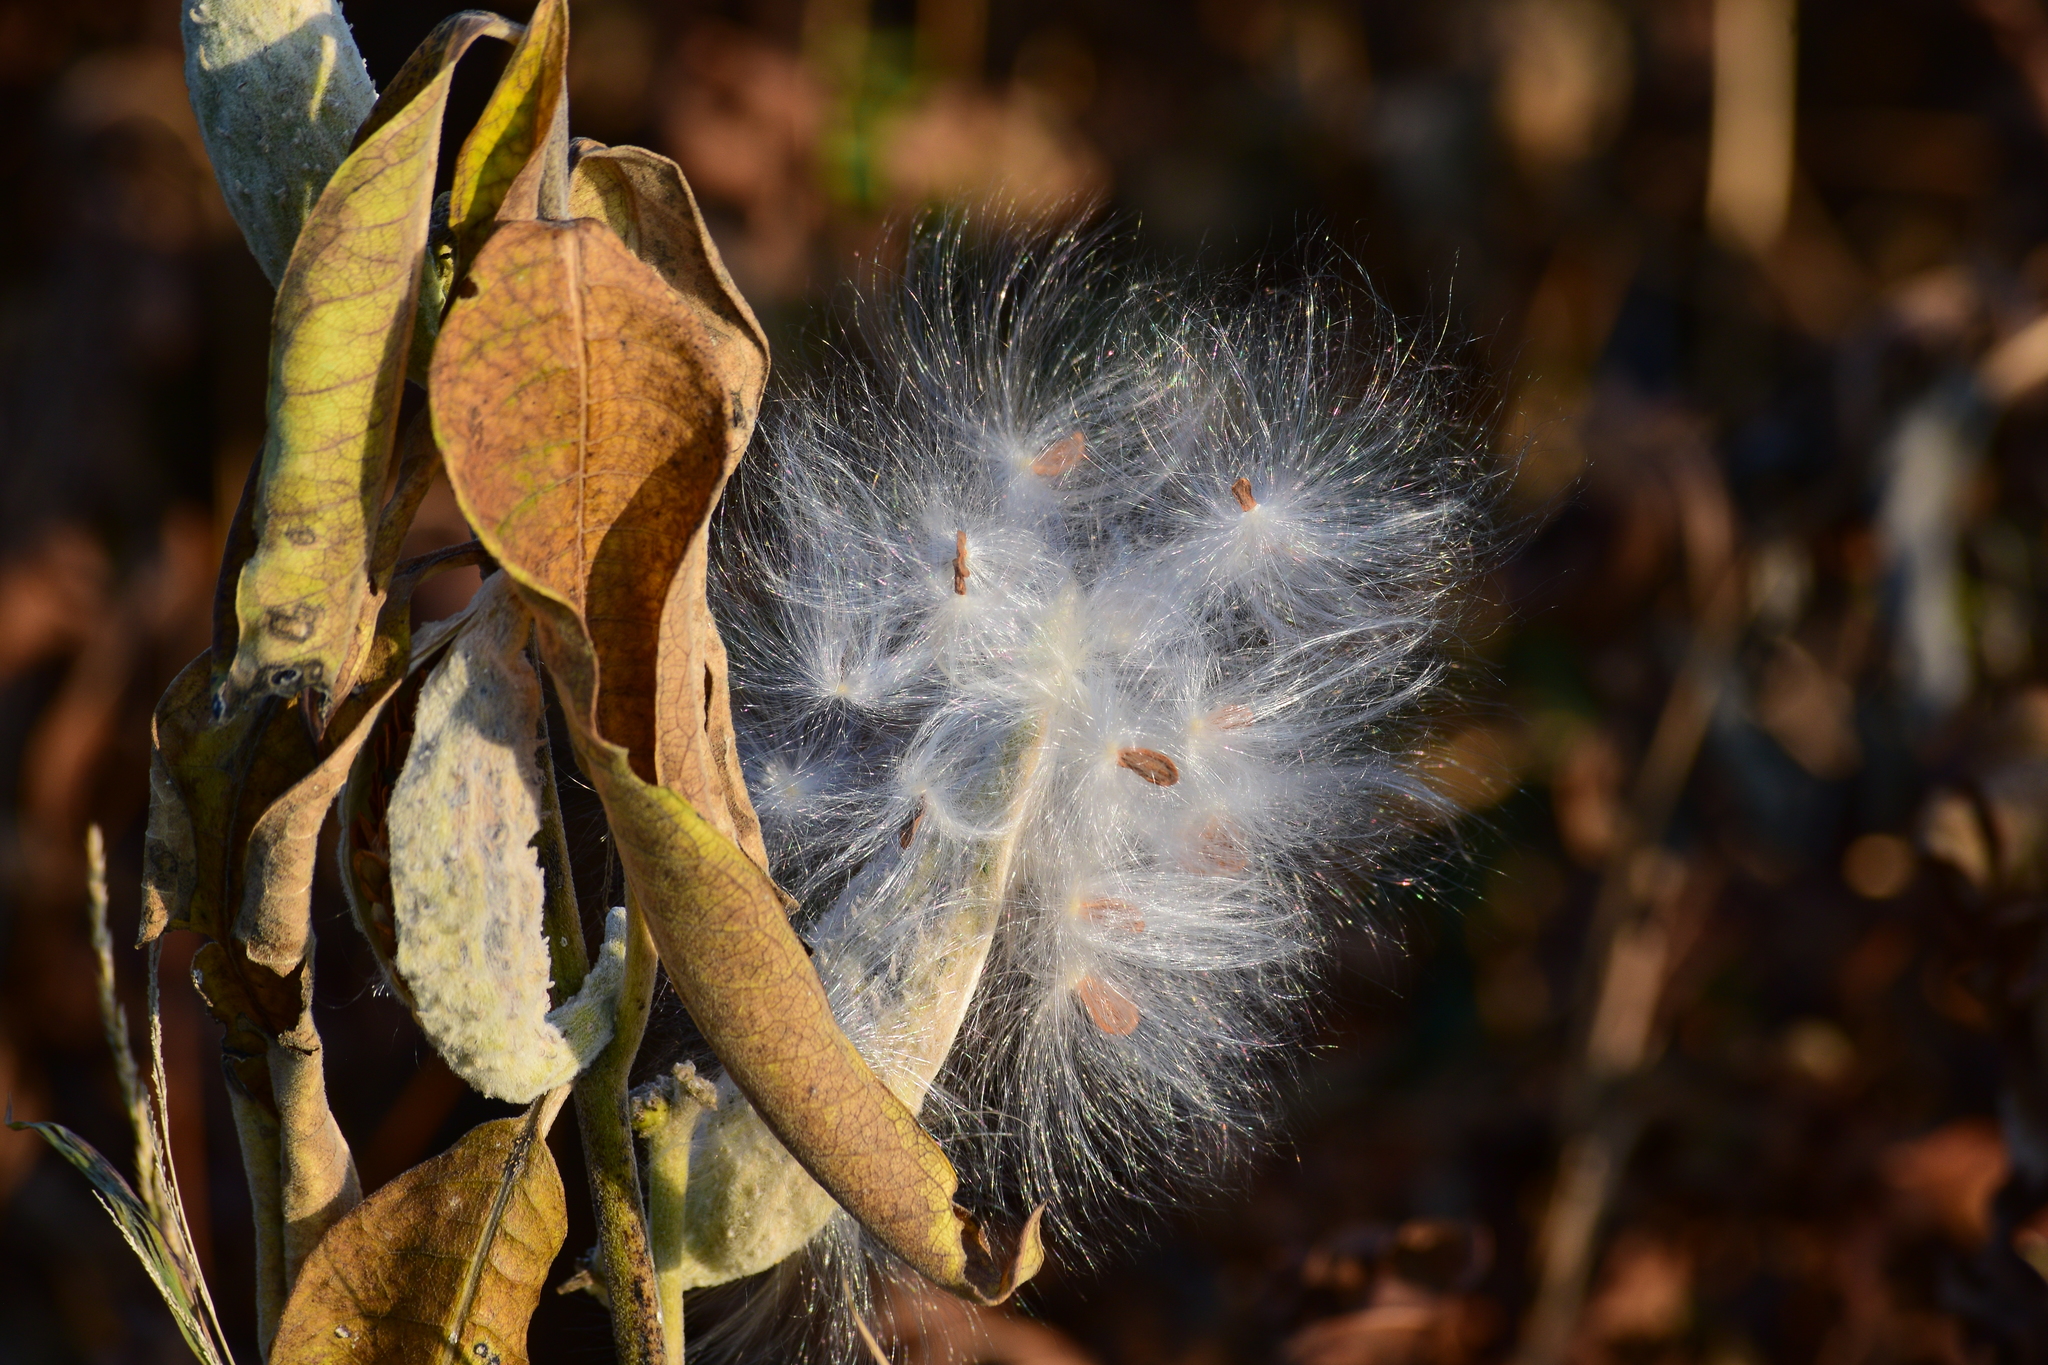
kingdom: Plantae
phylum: Tracheophyta
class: Magnoliopsida
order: Gentianales
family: Apocynaceae
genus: Asclepias
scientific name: Asclepias syriaca
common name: Common milkweed
